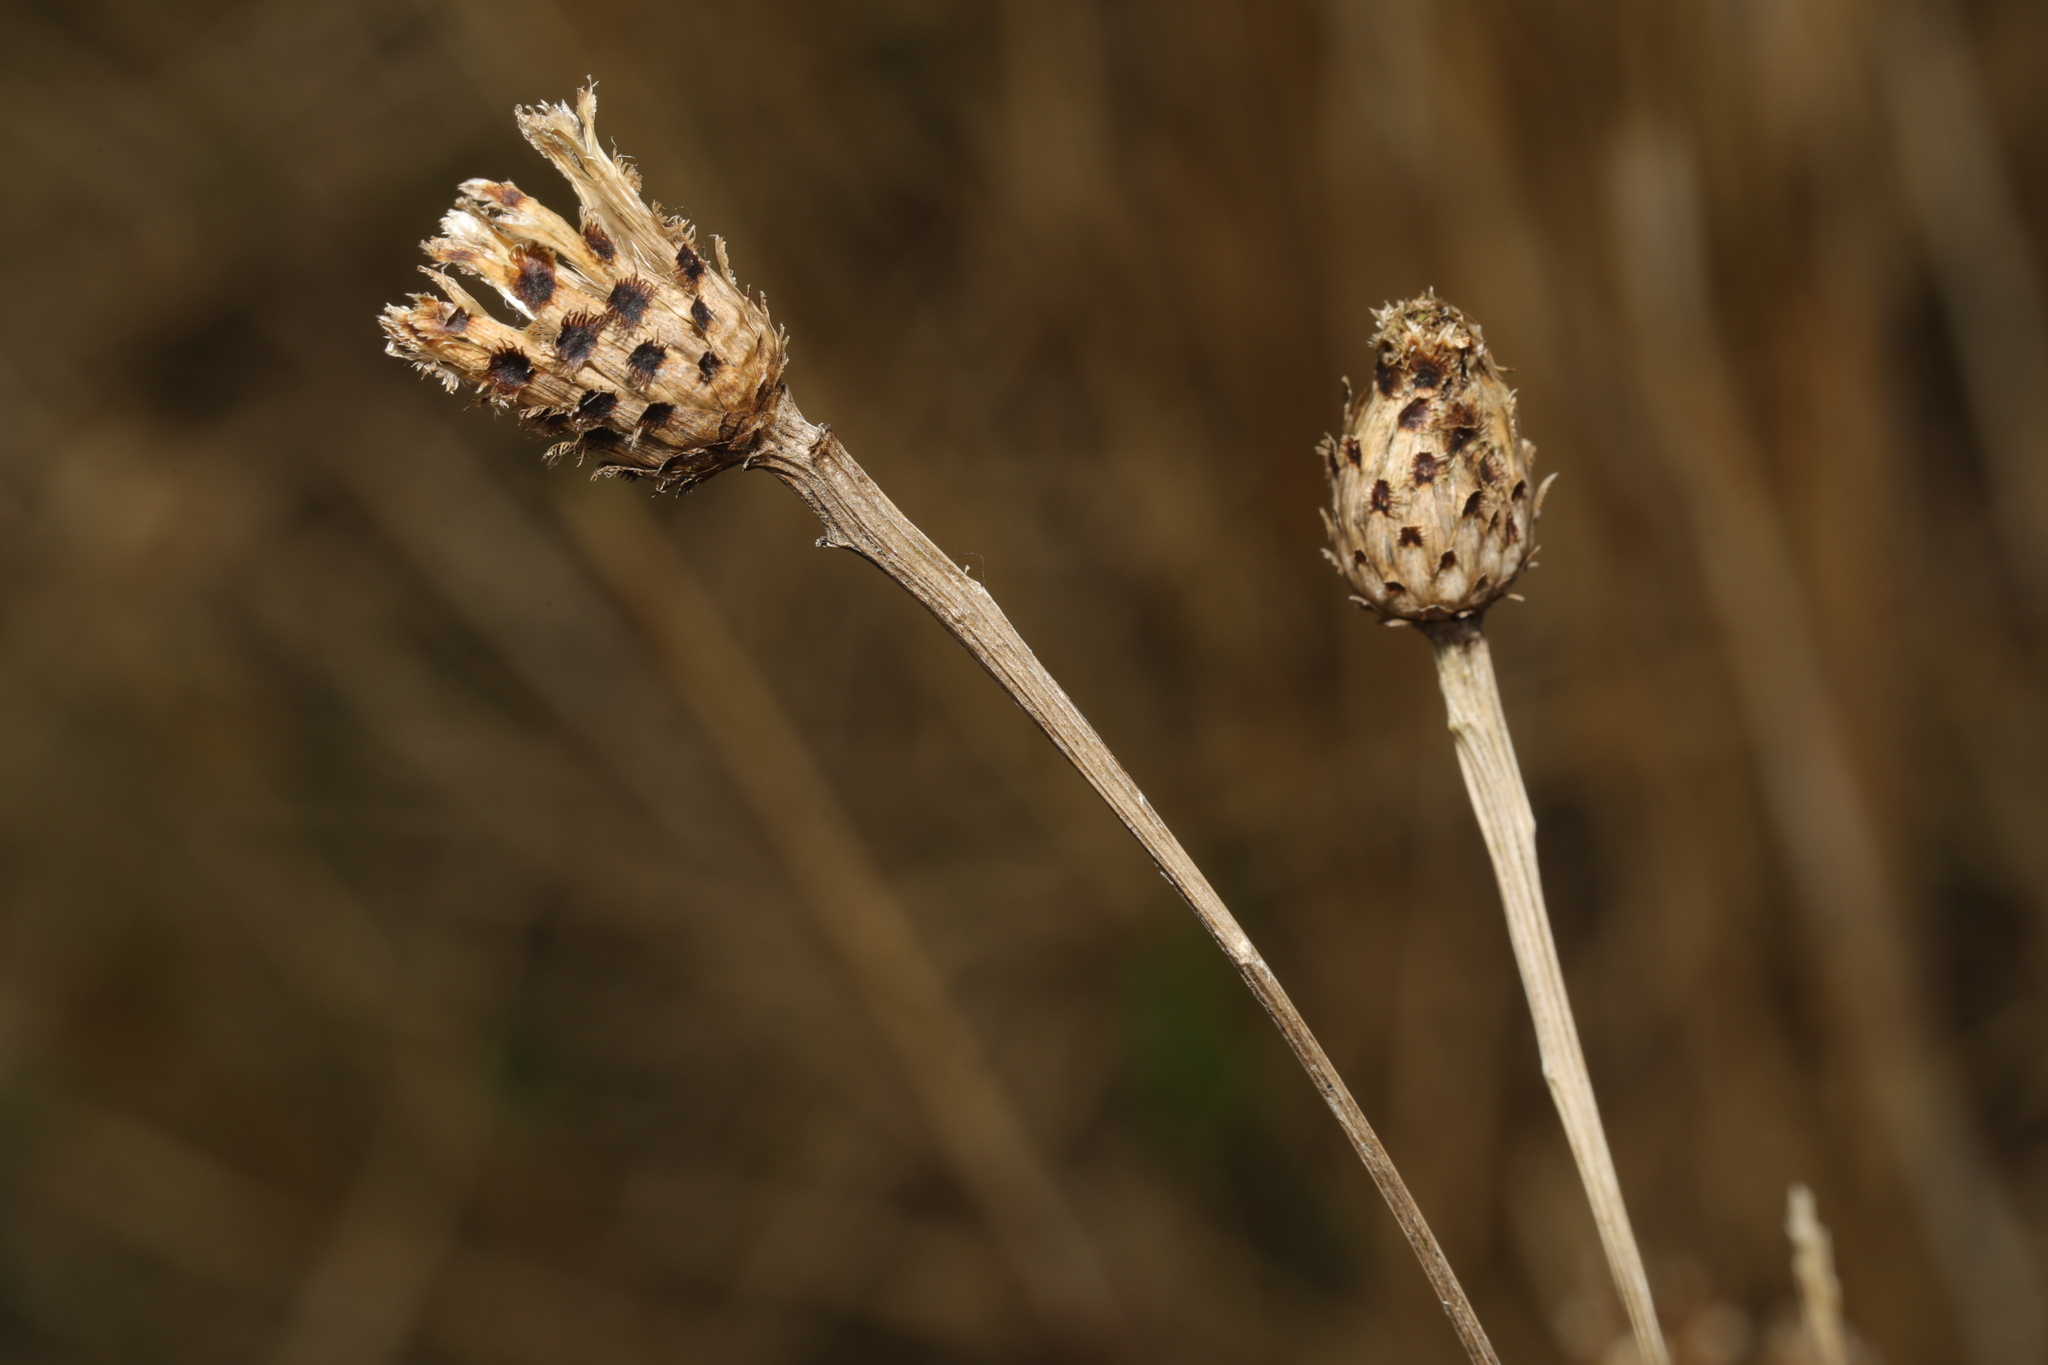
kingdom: Plantae
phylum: Tracheophyta
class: Magnoliopsida
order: Asterales
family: Asteraceae
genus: Centaurea
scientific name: Centaurea nigra
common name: Lesser knapweed
